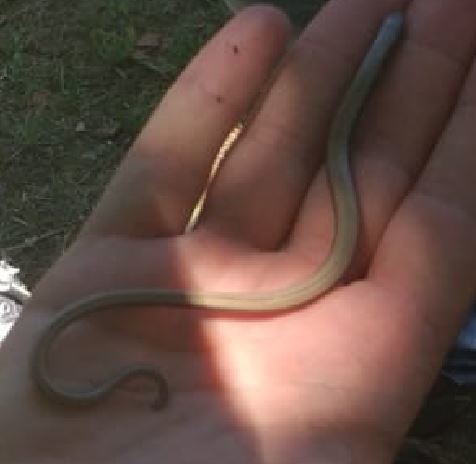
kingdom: Animalia
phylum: Chordata
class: Squamata
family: Anguidae
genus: Anguis
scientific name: Anguis fragilis
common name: Slow worm
